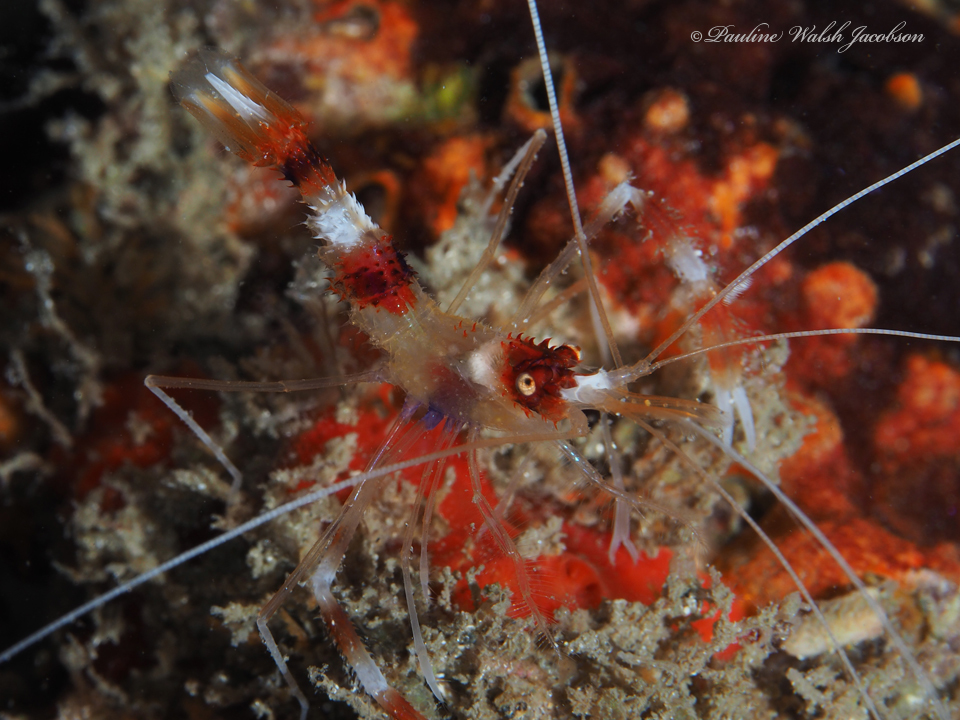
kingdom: Animalia
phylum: Arthropoda
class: Malacostraca
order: Decapoda
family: Stenopodidae
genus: Stenopus
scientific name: Stenopus hispidus
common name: Banded coral shrimp
